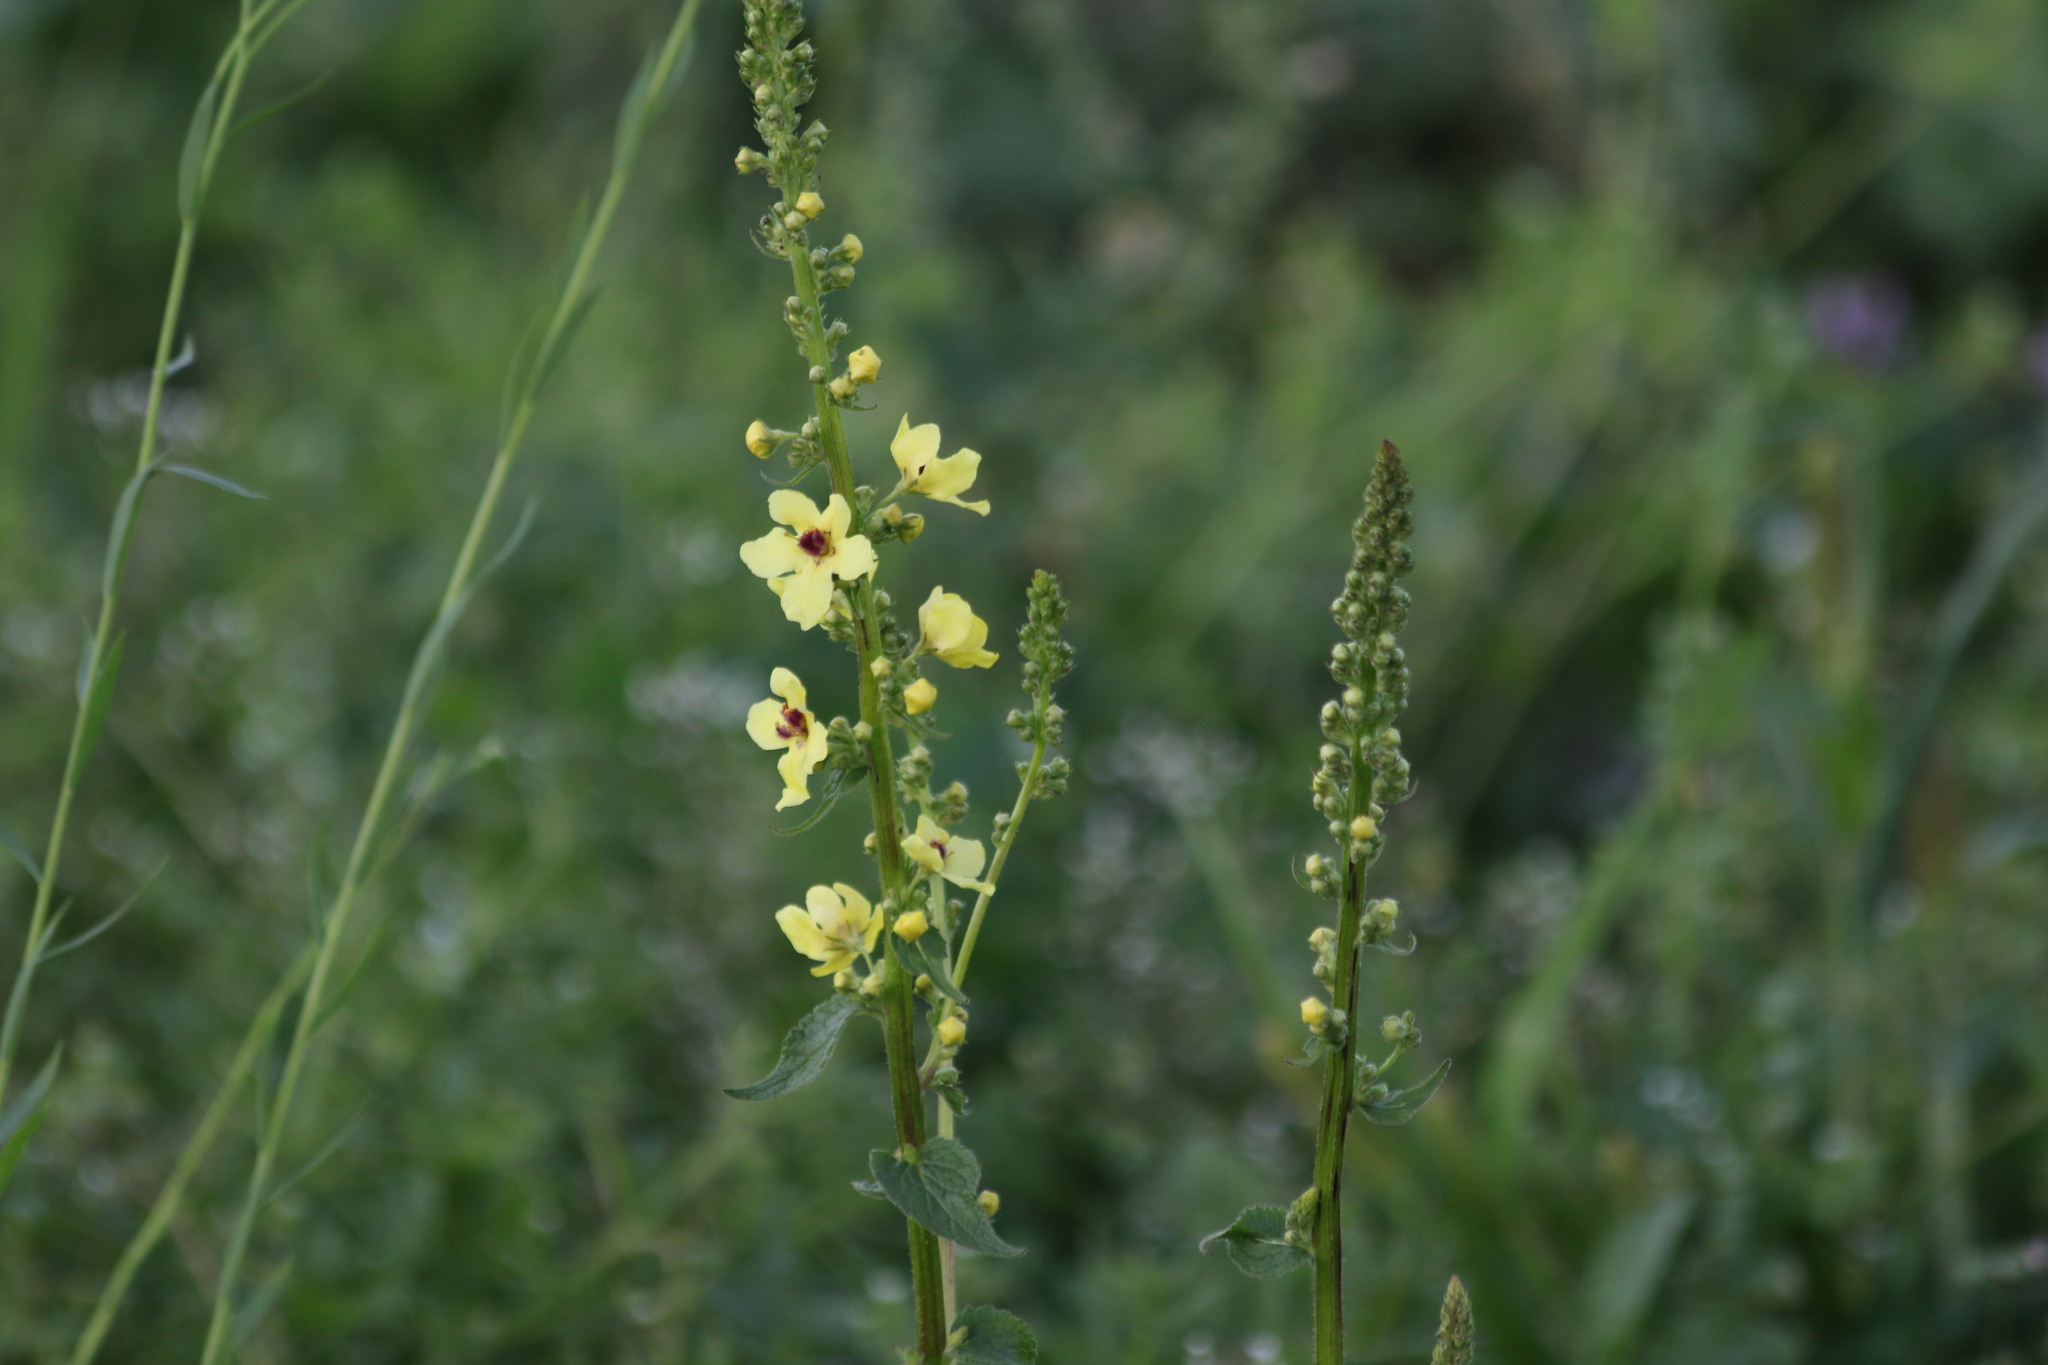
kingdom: Plantae
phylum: Tracheophyta
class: Magnoliopsida
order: Lamiales
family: Scrophulariaceae
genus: Verbascum
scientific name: Verbascum nigrum
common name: Dark mullein
